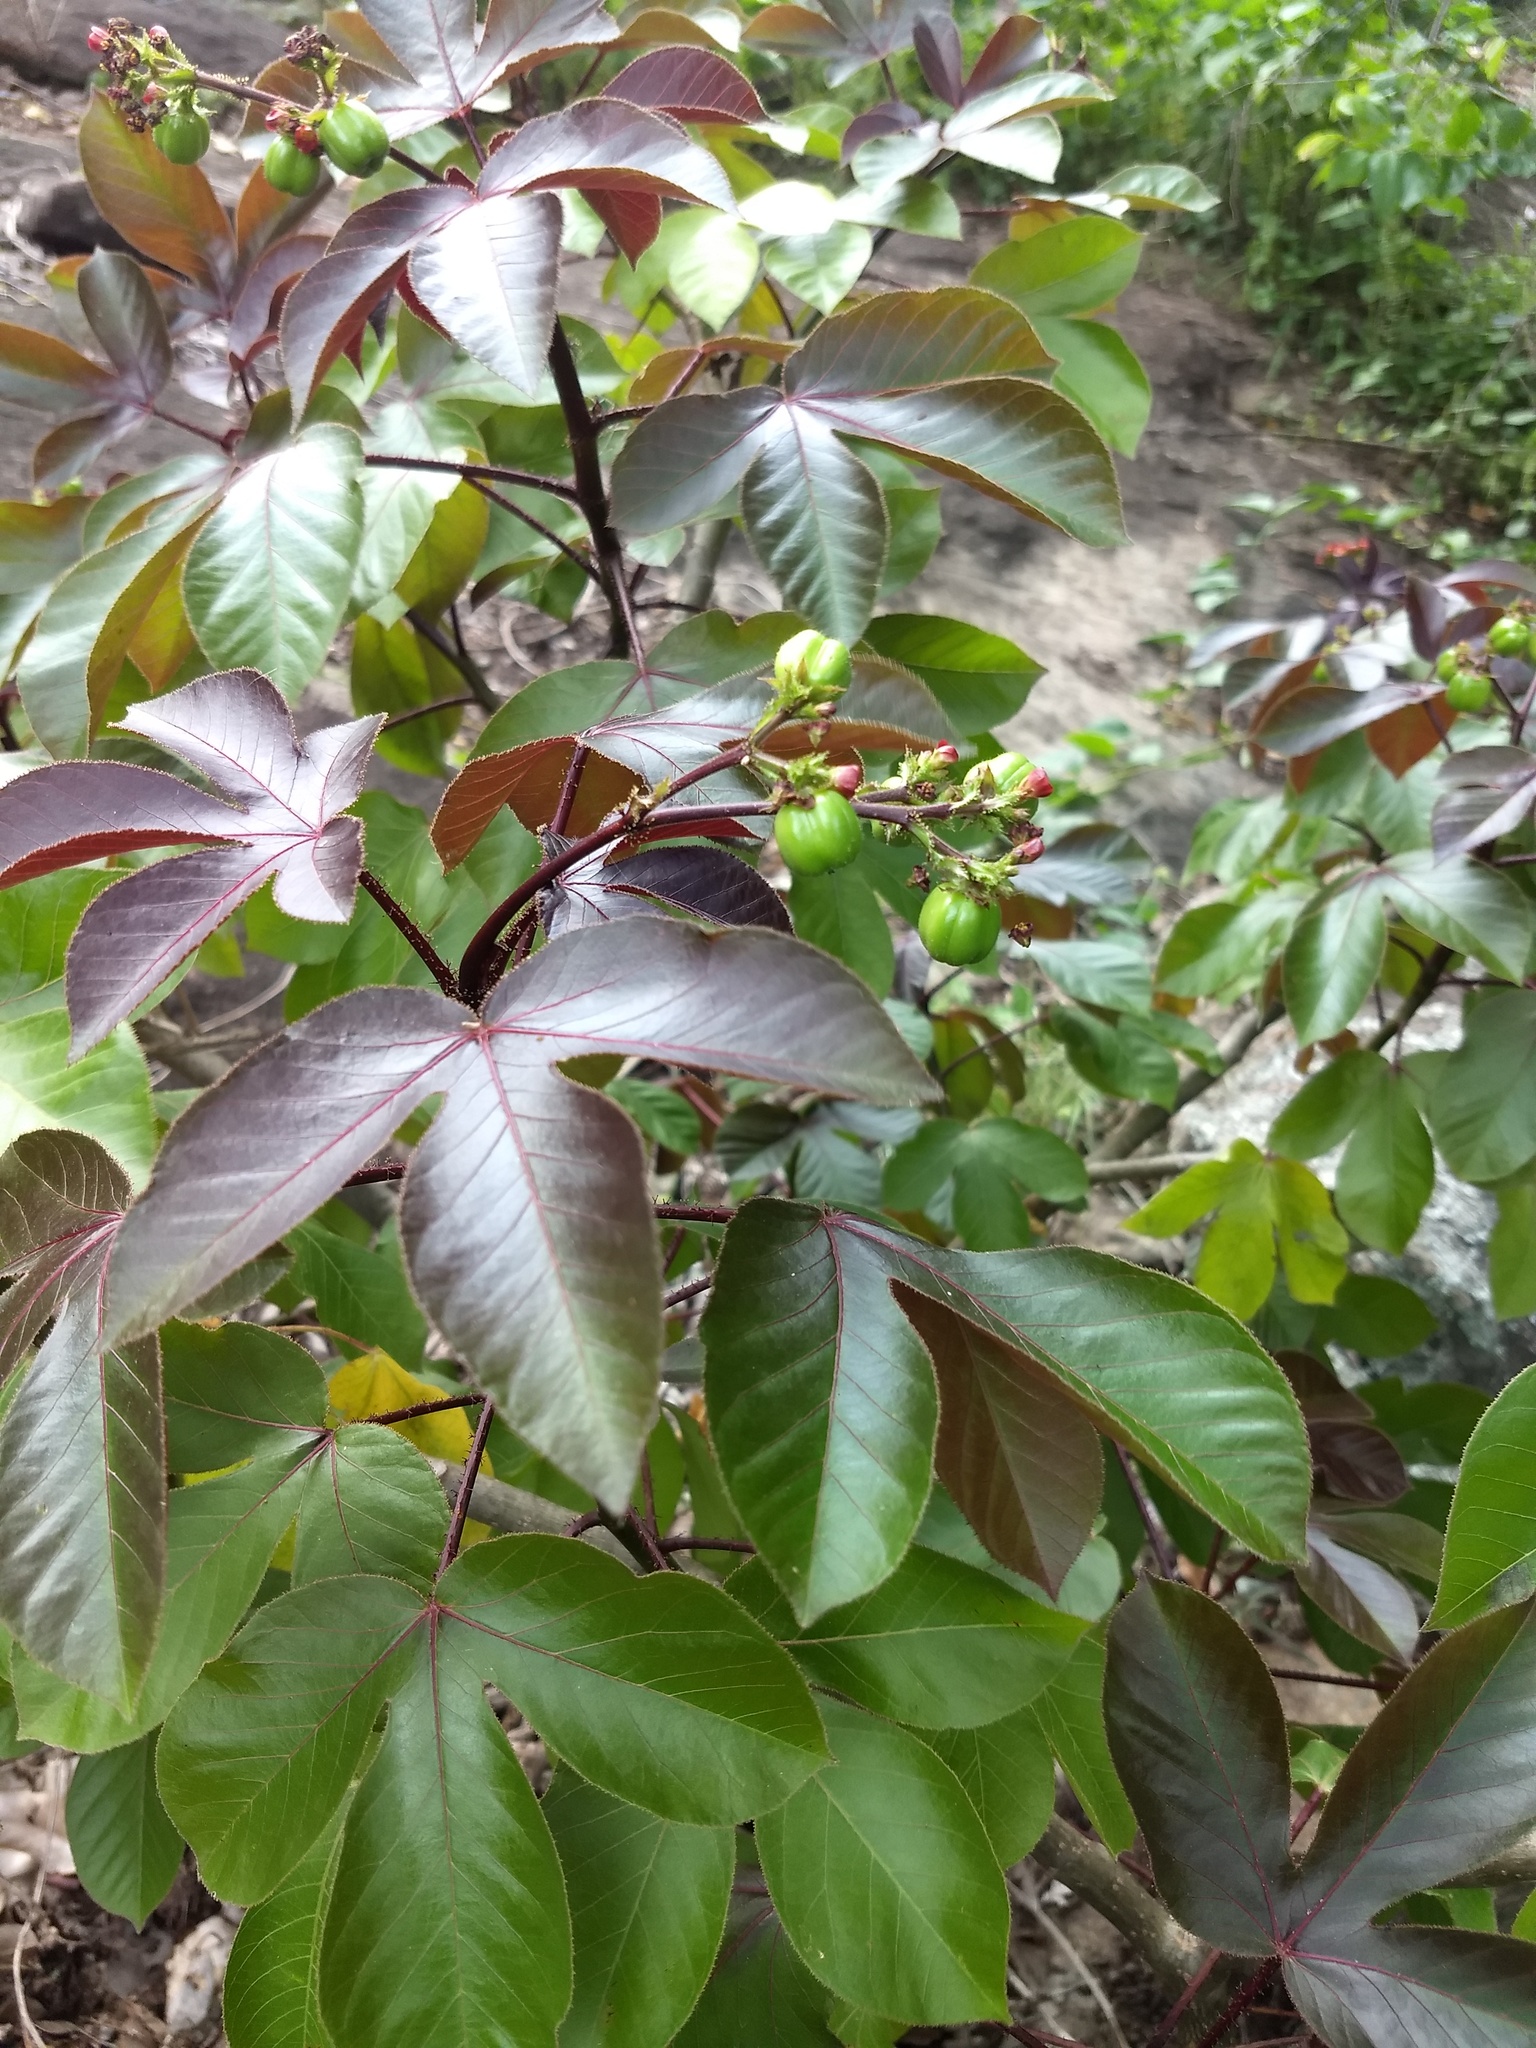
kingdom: Plantae
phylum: Tracheophyta
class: Magnoliopsida
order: Malpighiales
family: Euphorbiaceae
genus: Jatropha
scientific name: Jatropha gossypiifolia
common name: Bellyache bush
